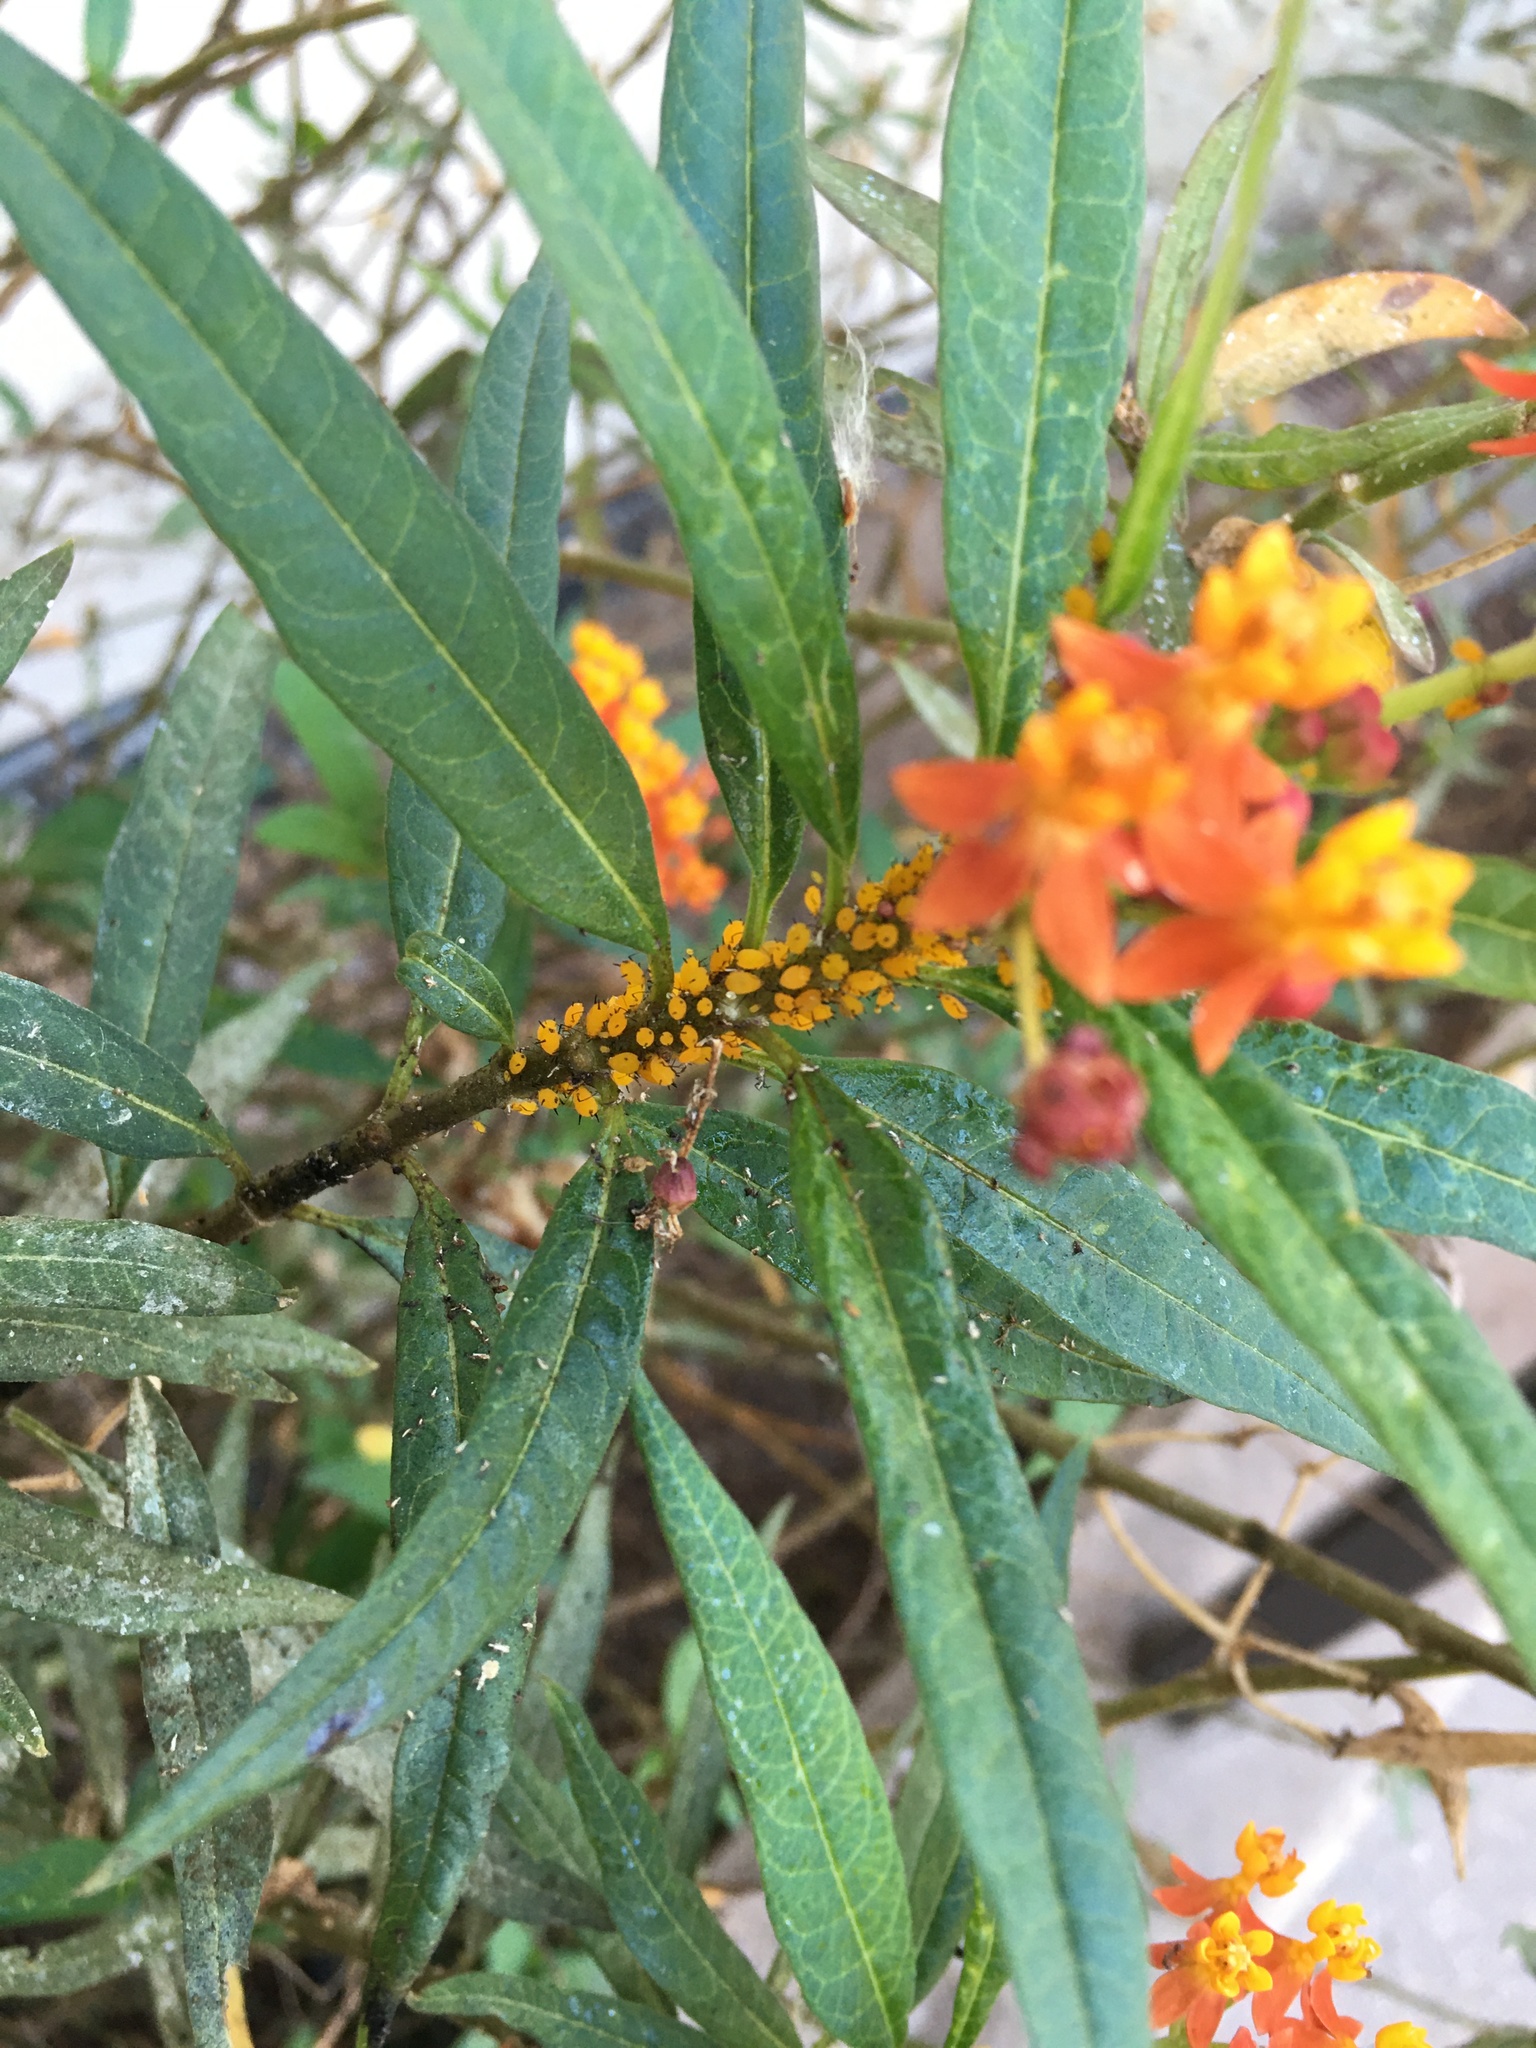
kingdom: Animalia
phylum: Arthropoda
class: Insecta
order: Hemiptera
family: Aphididae
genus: Aphis
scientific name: Aphis nerii
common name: Oleander aphid
